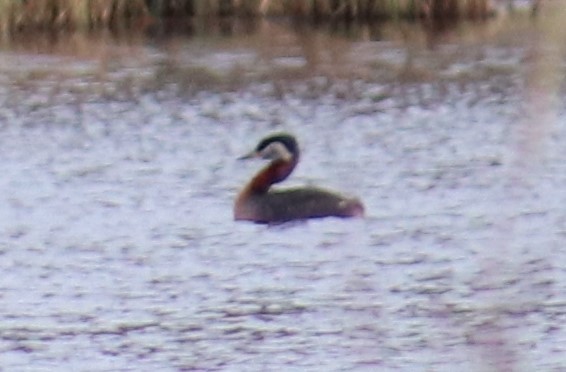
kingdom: Animalia
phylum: Chordata
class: Aves
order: Podicipediformes
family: Podicipedidae
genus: Podiceps
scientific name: Podiceps grisegena
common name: Red-necked grebe
